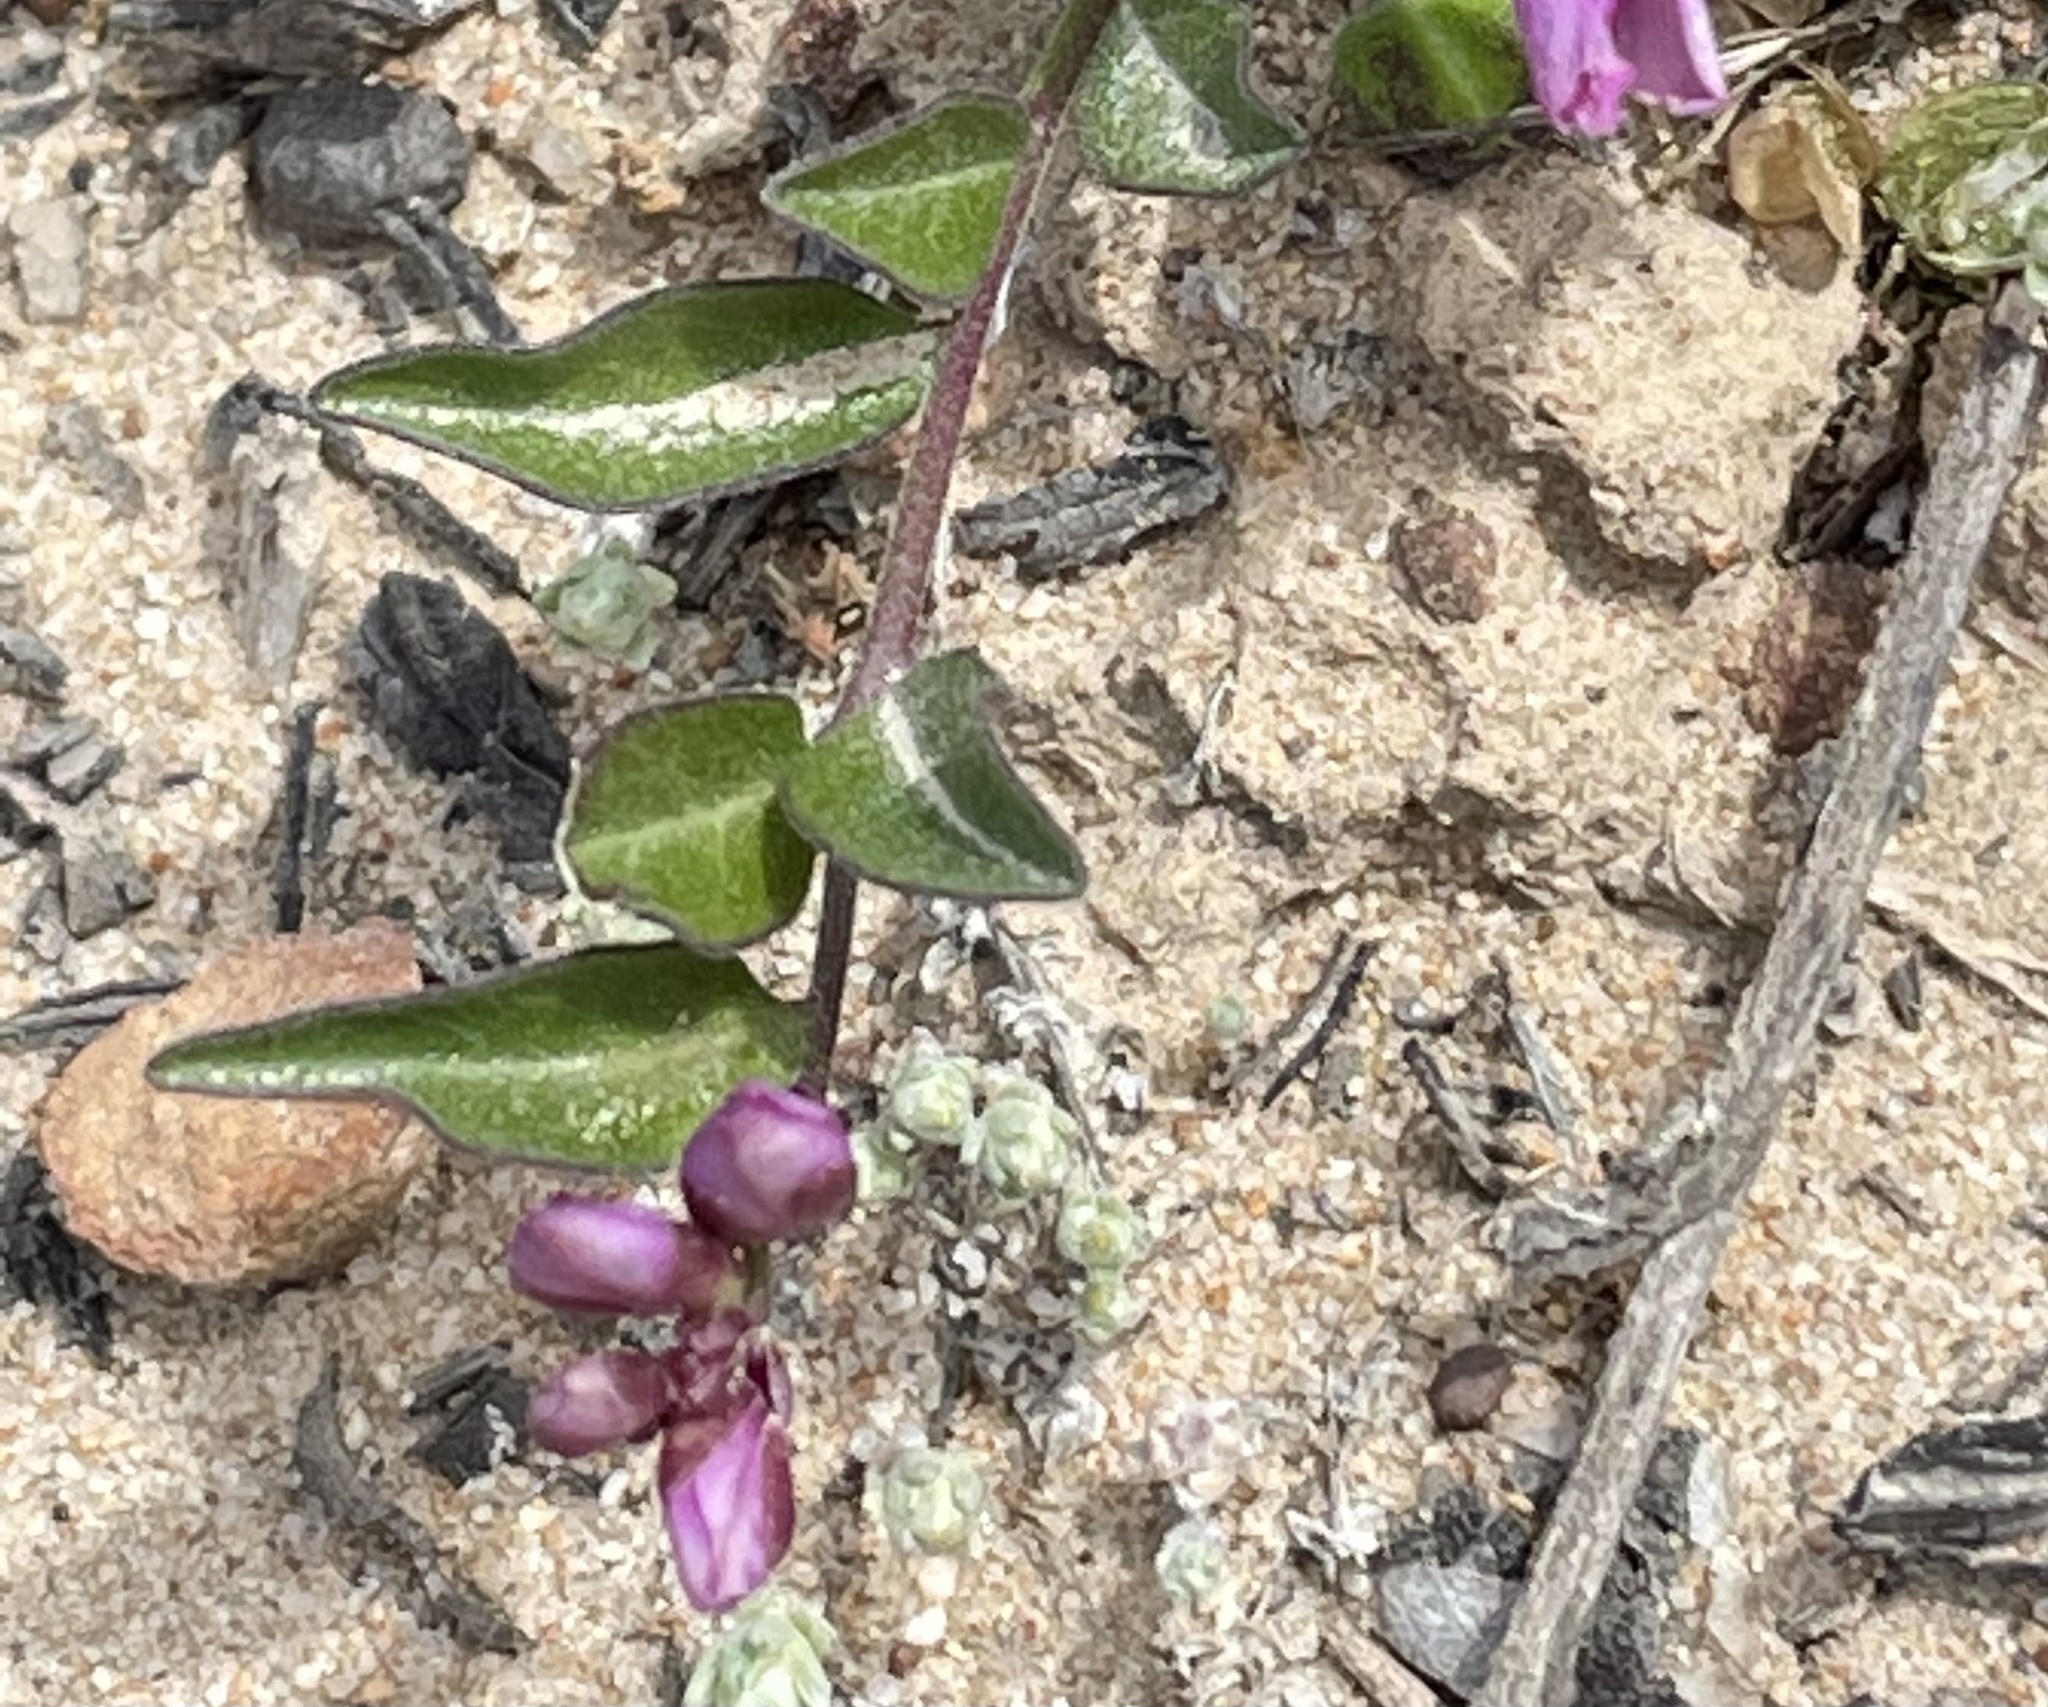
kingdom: Plantae
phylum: Tracheophyta
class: Magnoliopsida
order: Fabales
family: Polygalaceae
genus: Rhinotropis
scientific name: Rhinotropis californica
